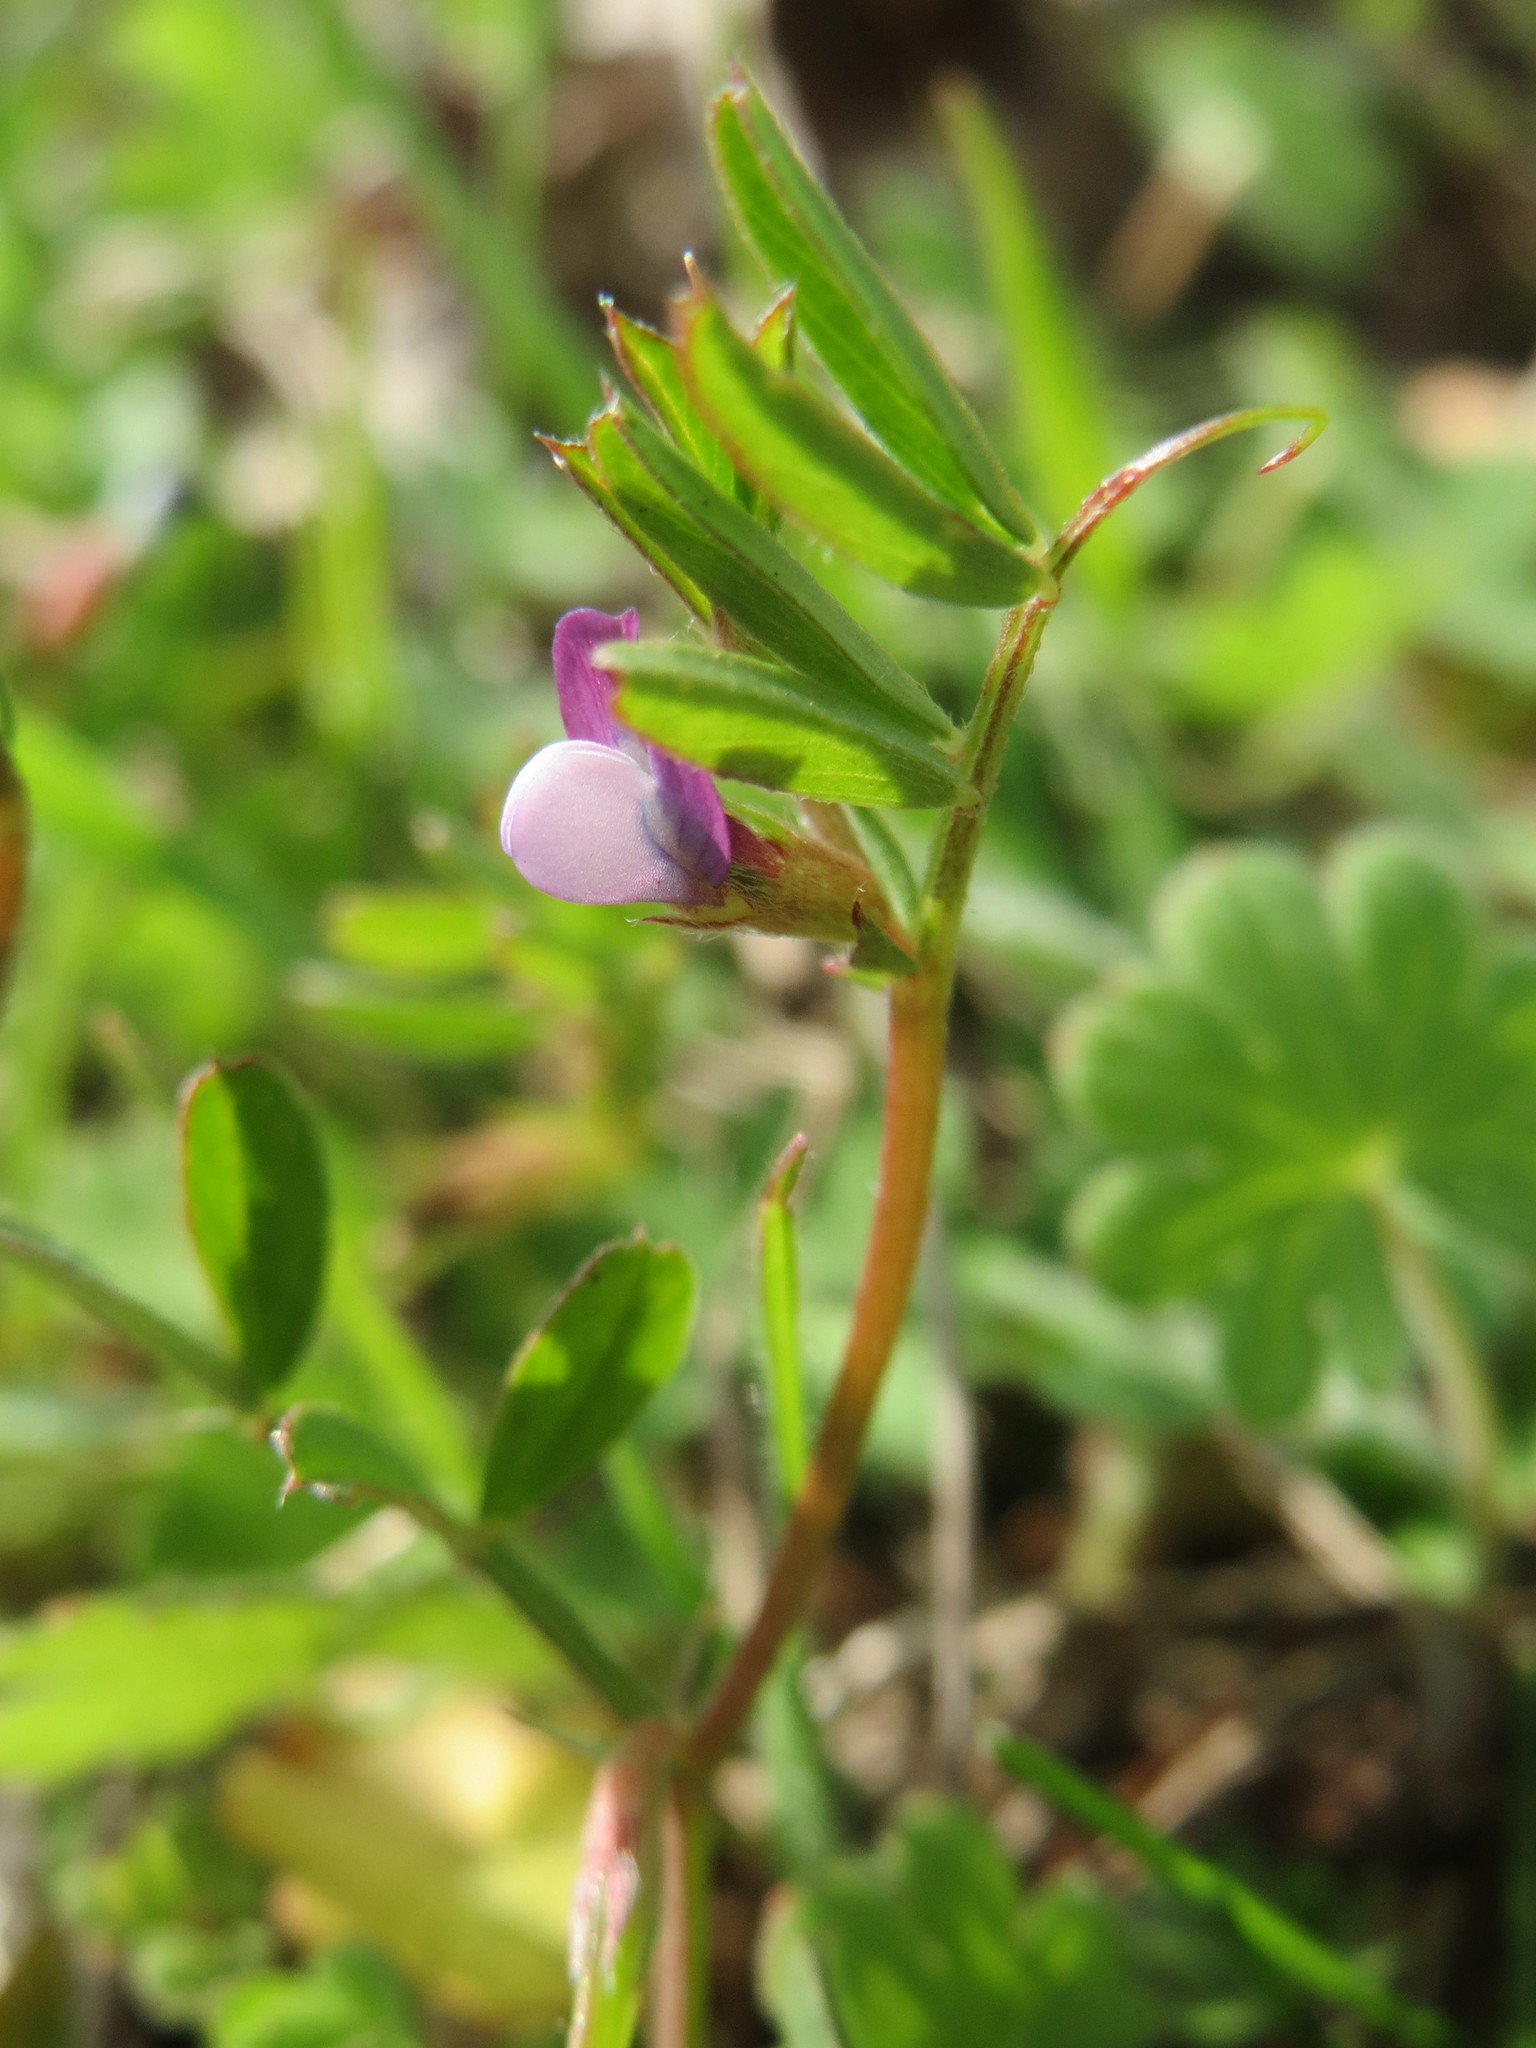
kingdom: Plantae
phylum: Tracheophyta
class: Magnoliopsida
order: Fabales
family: Fabaceae
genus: Vicia
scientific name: Vicia lathyroides
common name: Spring vetch
